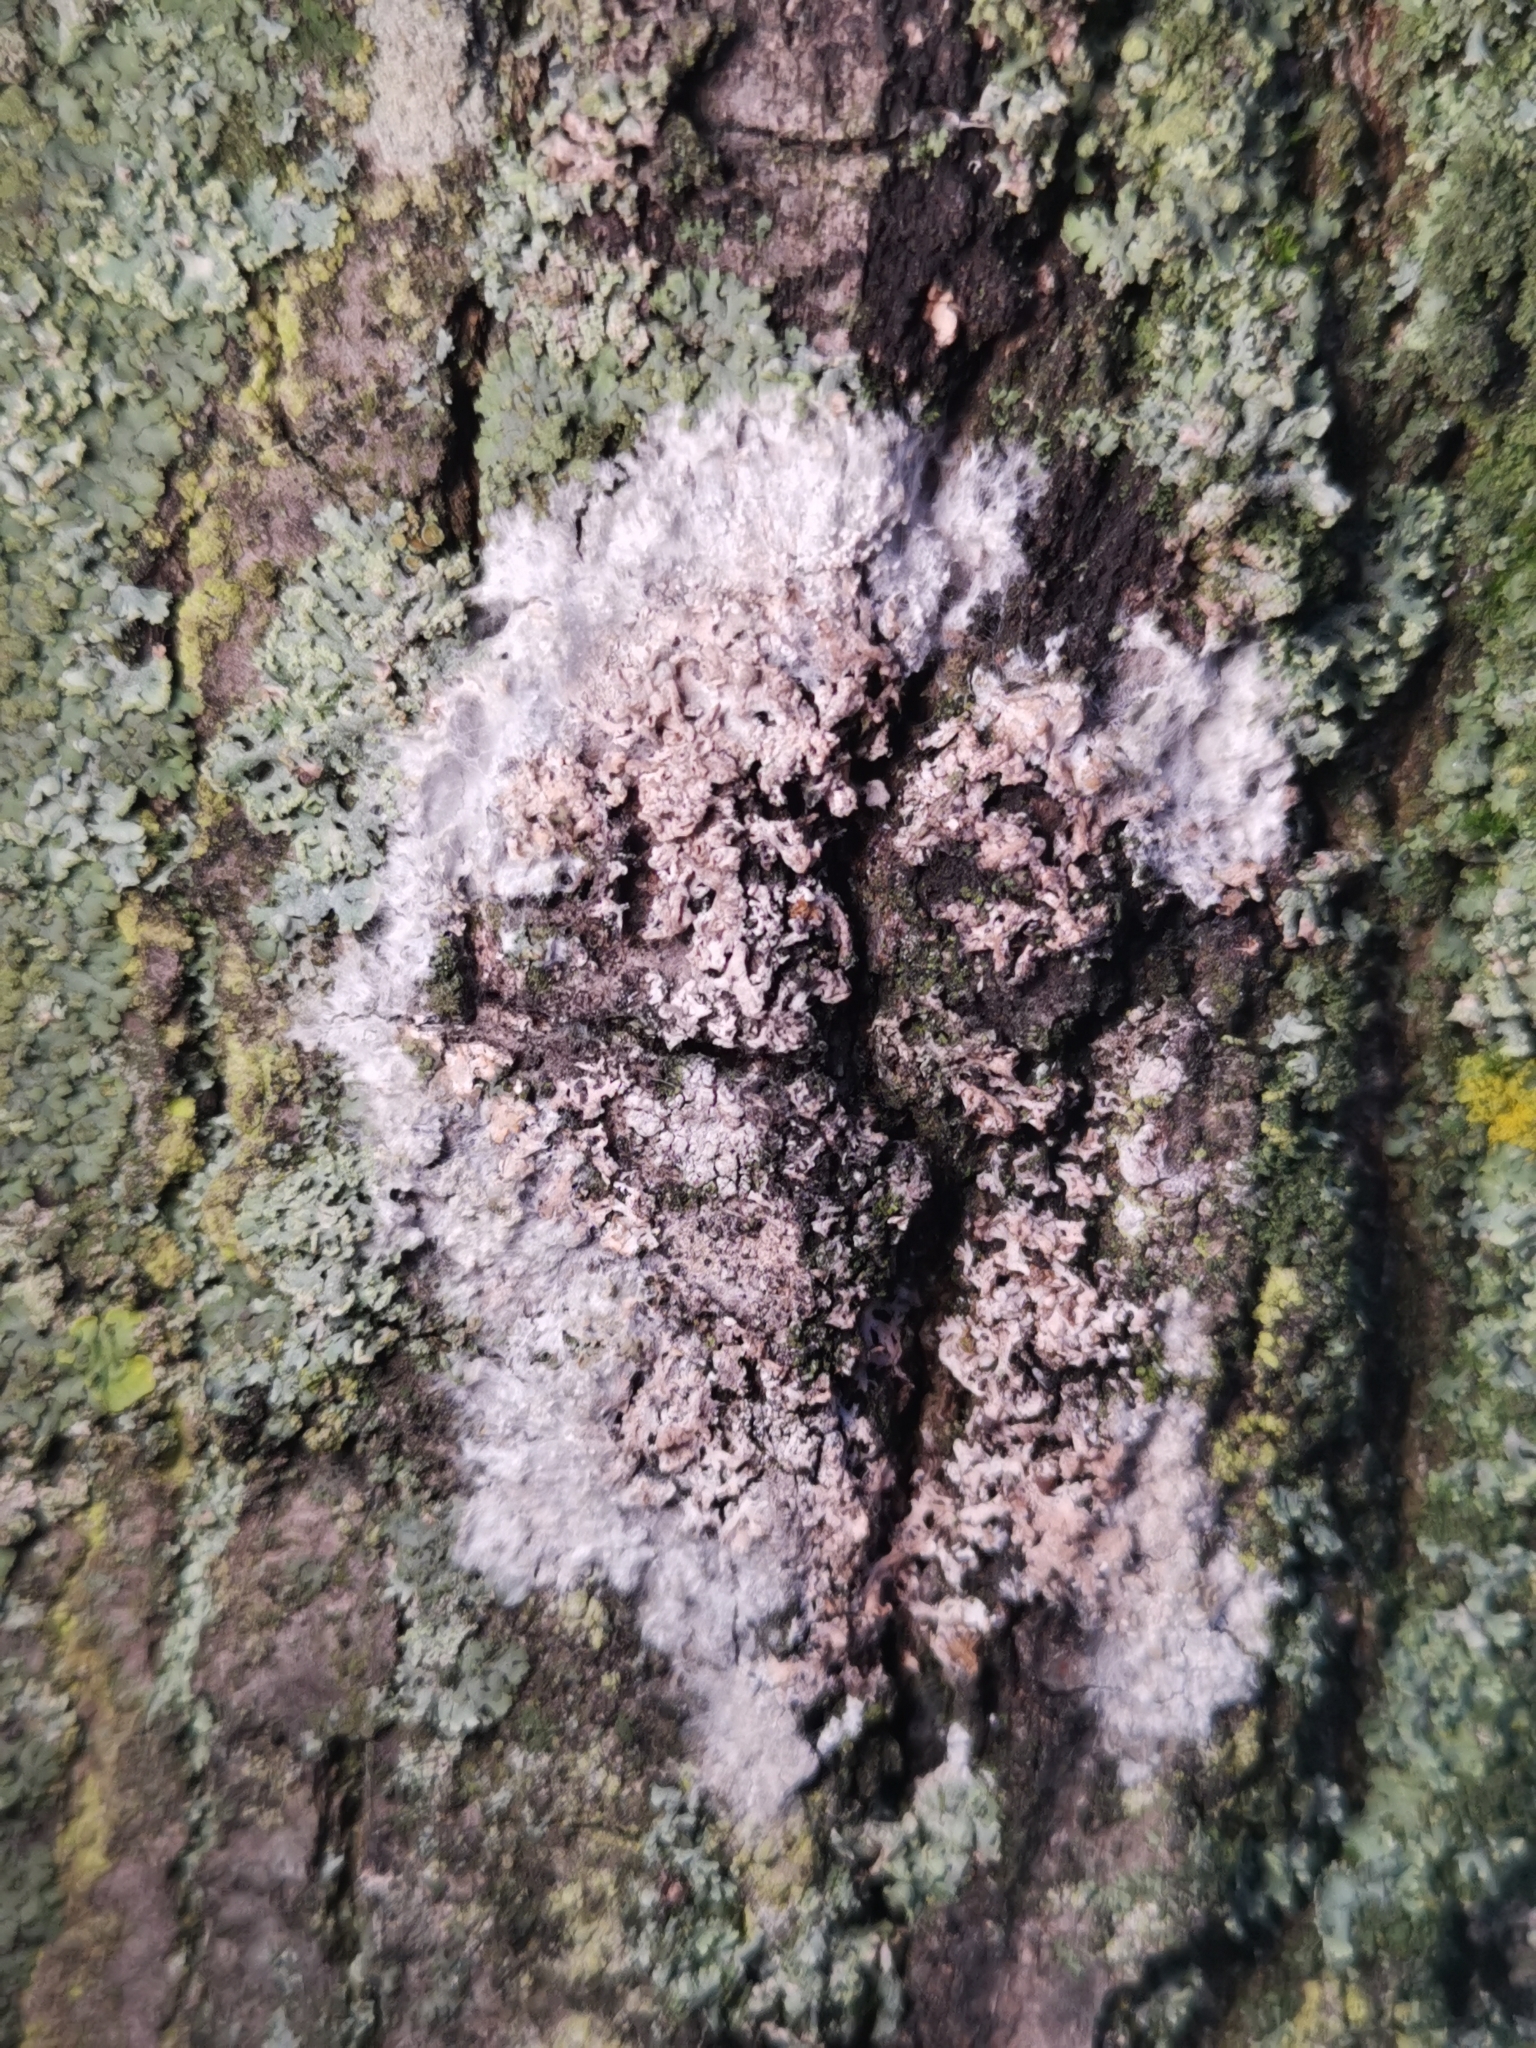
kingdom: Fungi
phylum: Basidiomycota
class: Agaricomycetes
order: Atheliales
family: Atheliaceae
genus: Athelia
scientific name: Athelia arachnoidea
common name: Candelabra duster
